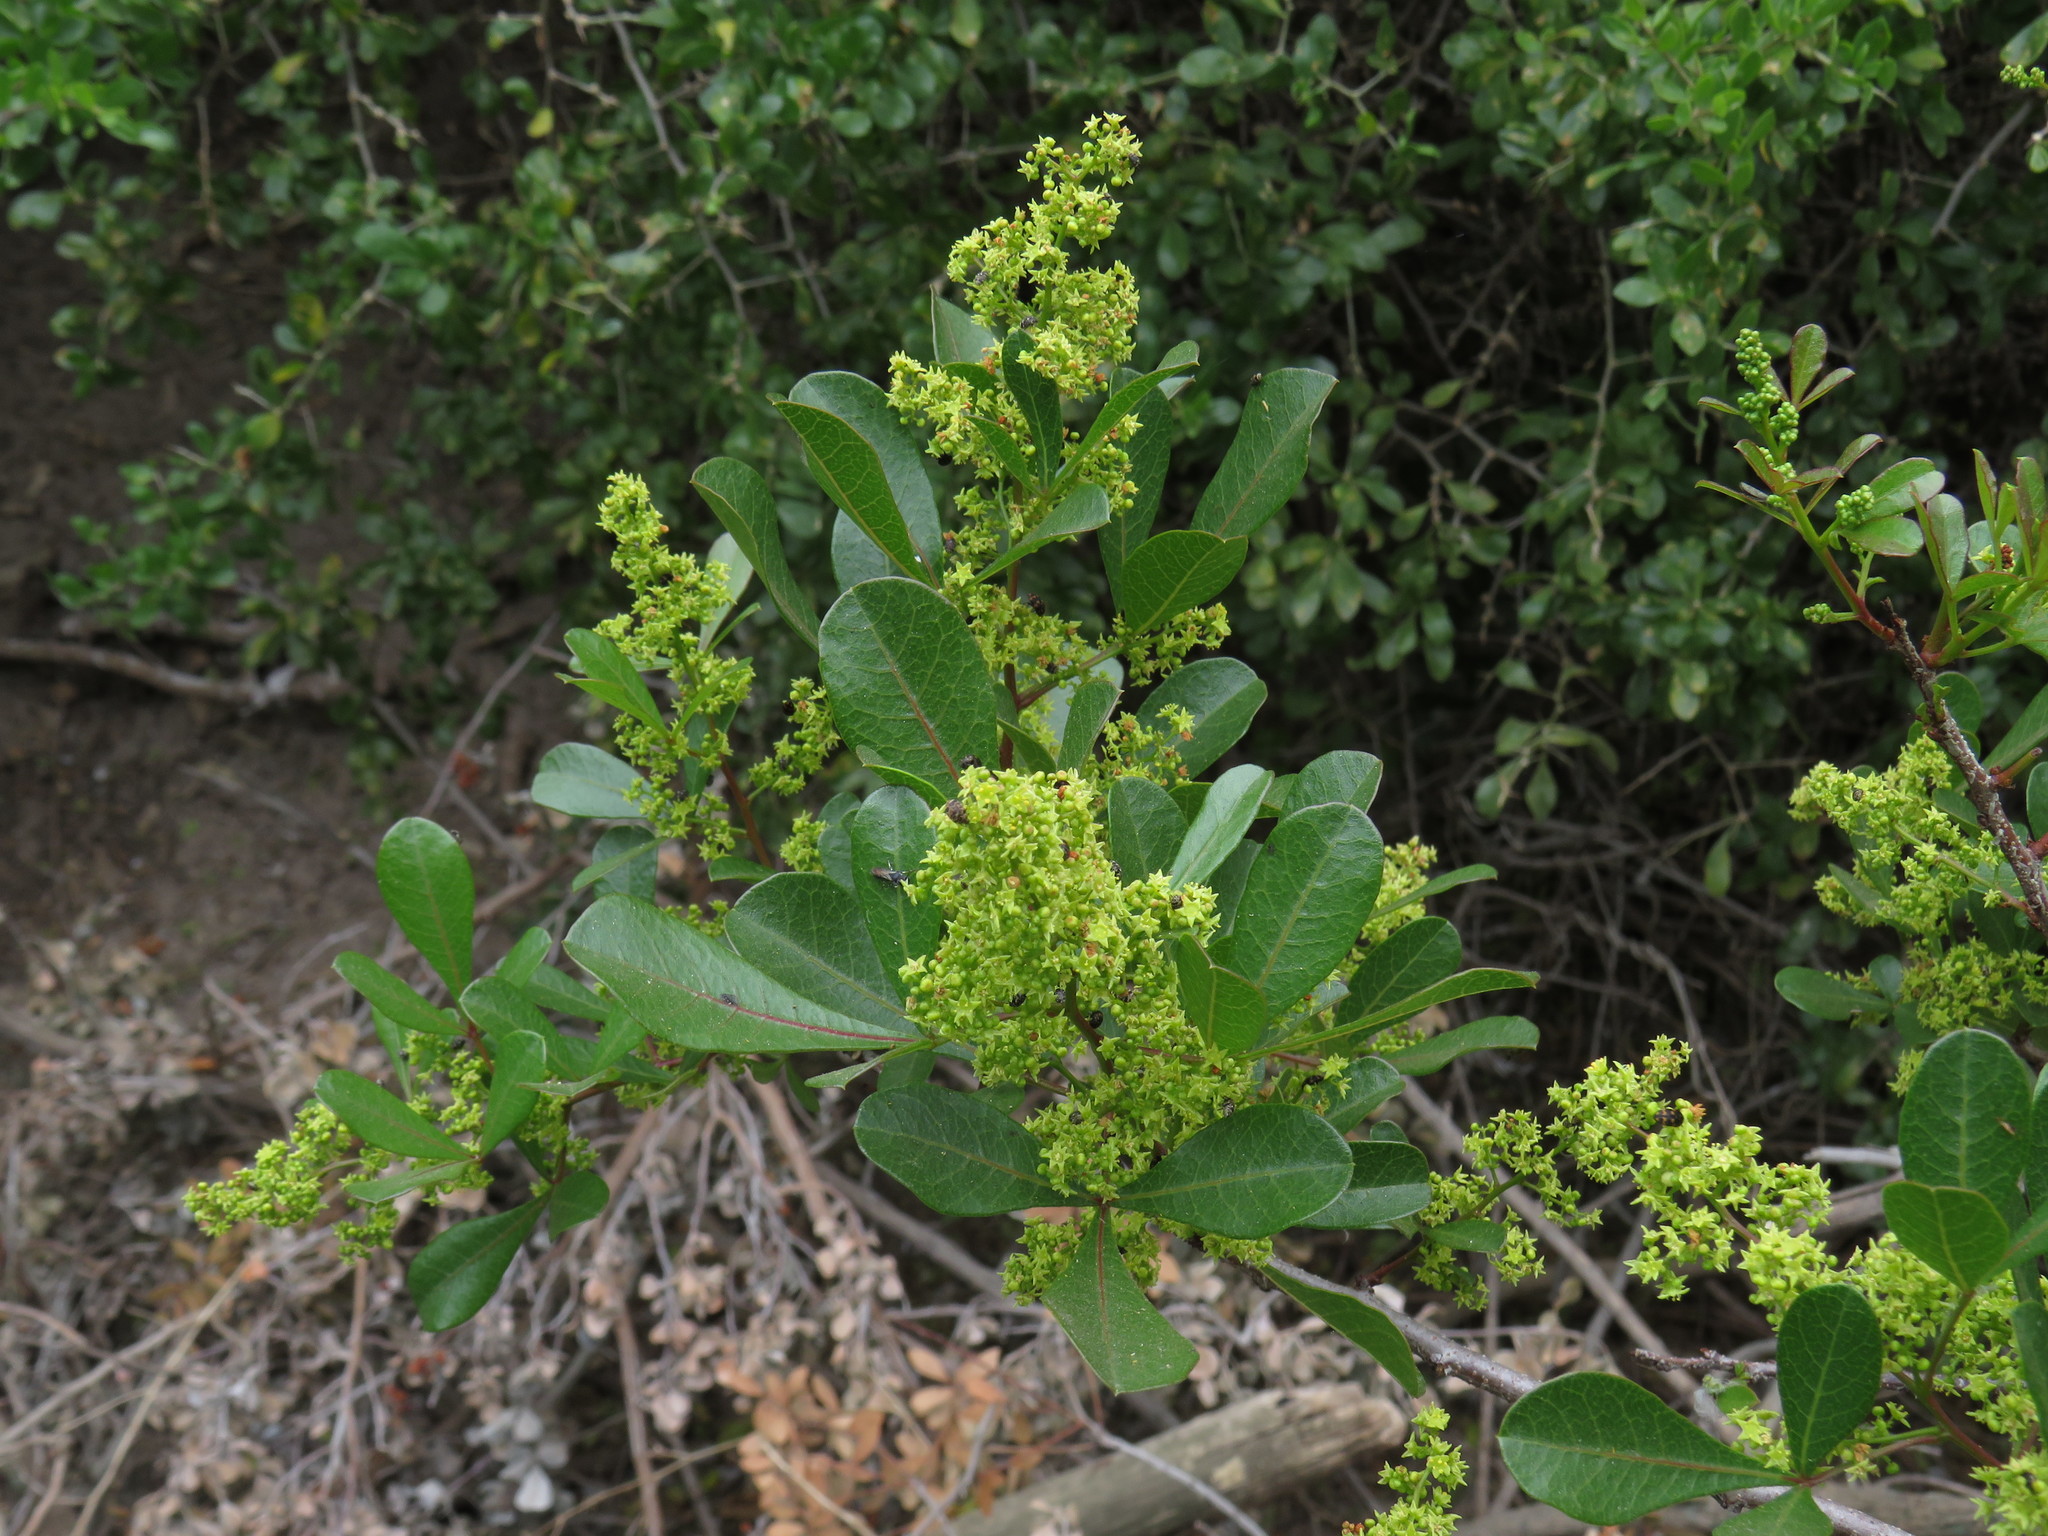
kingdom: Plantae
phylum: Tracheophyta
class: Magnoliopsida
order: Sapindales
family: Anacardiaceae
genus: Searsia
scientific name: Searsia laevigata
